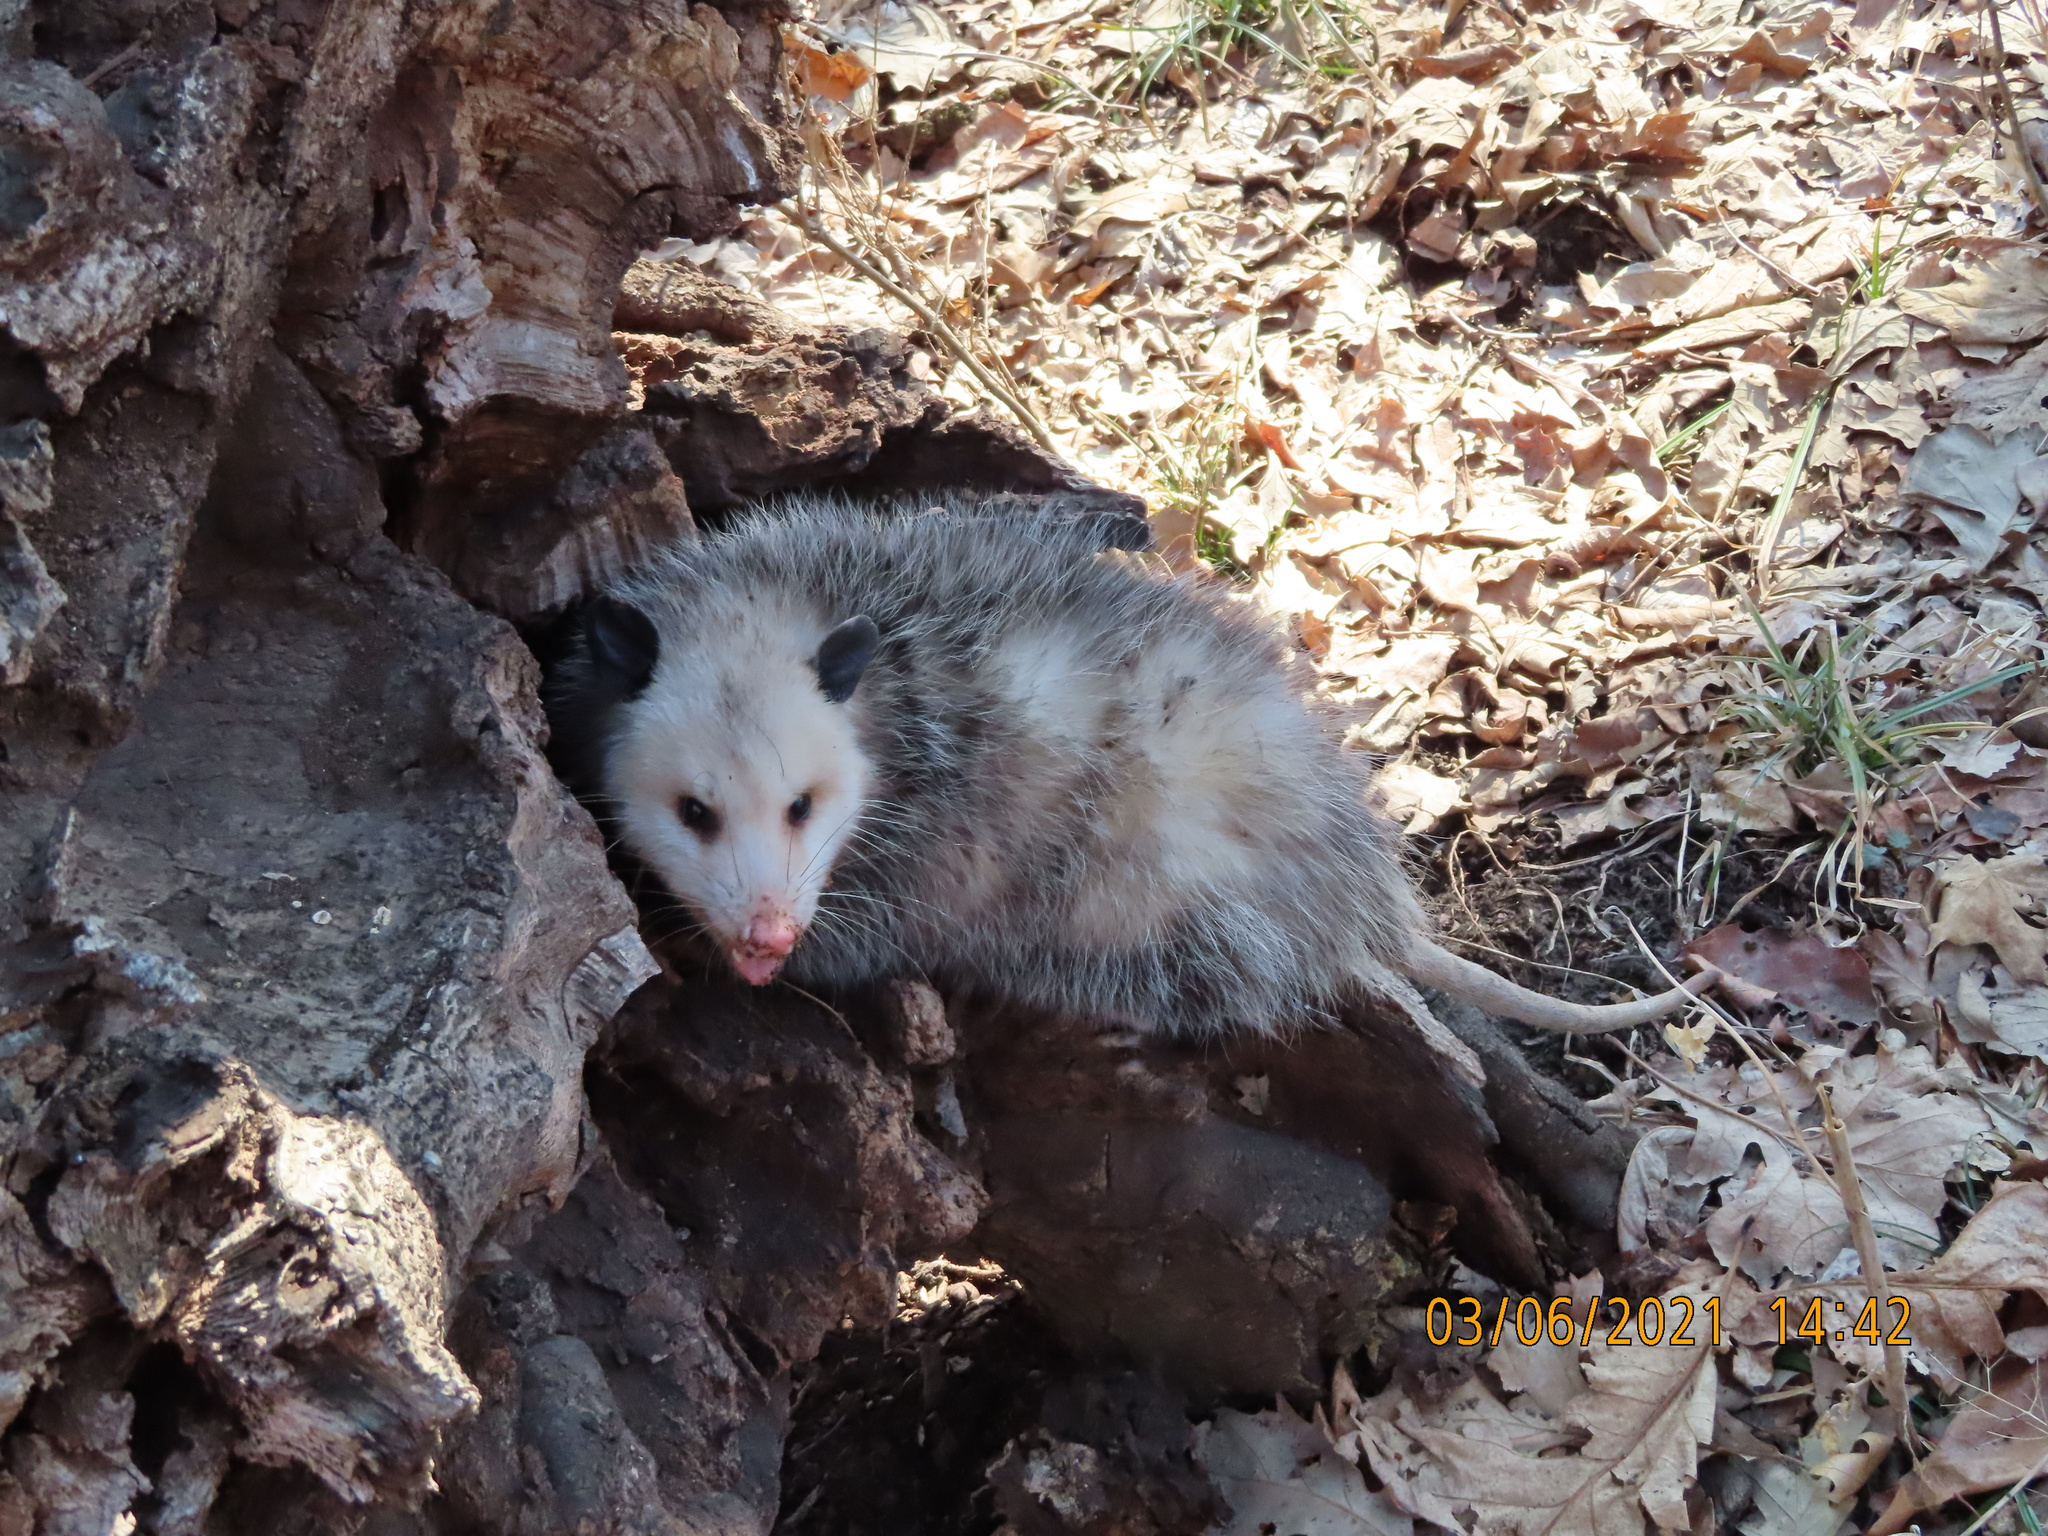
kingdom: Animalia
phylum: Chordata
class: Mammalia
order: Didelphimorphia
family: Didelphidae
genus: Didelphis
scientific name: Didelphis virginiana
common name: Virginia opossum
